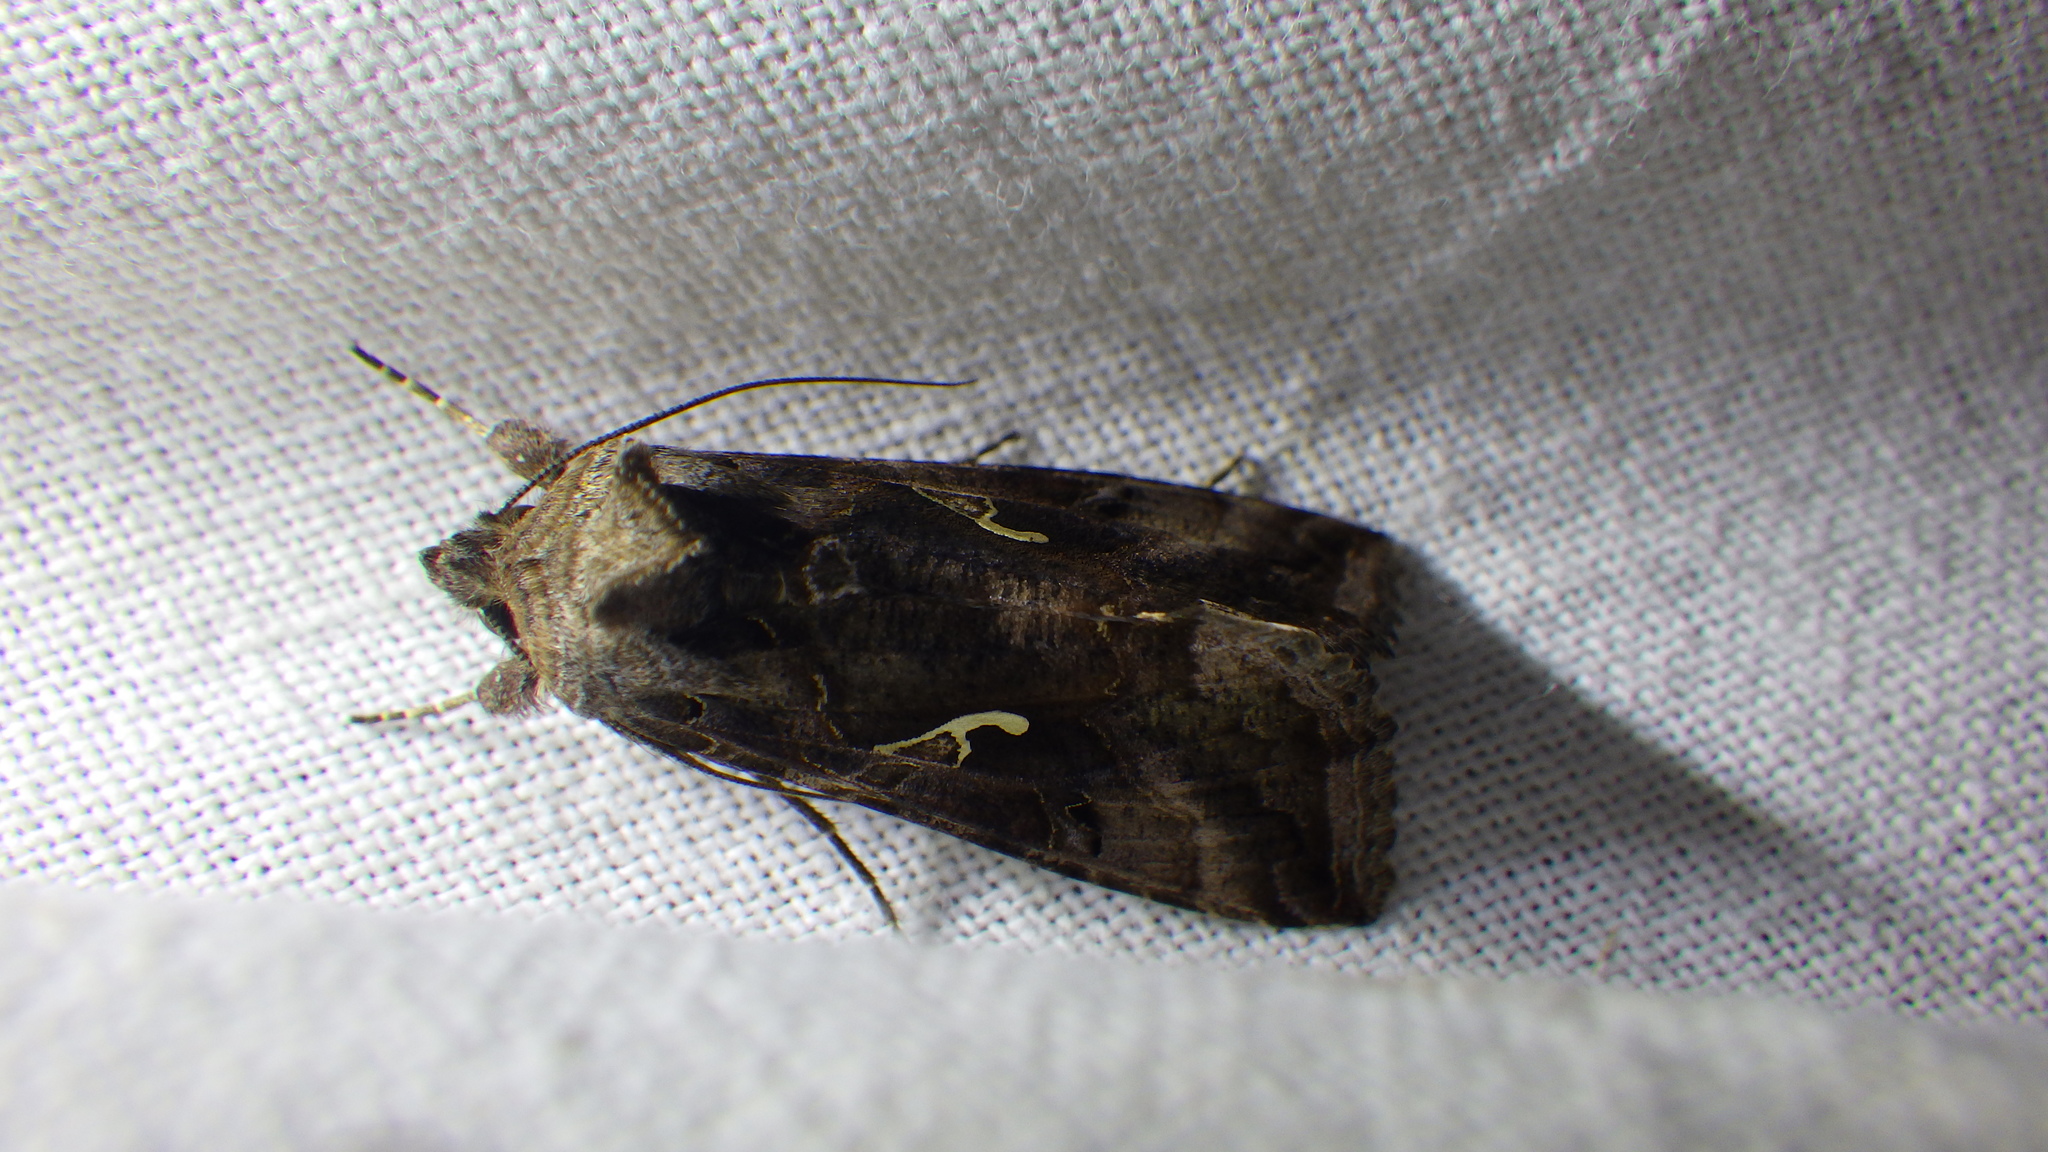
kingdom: Animalia
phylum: Arthropoda
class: Insecta
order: Lepidoptera
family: Noctuidae
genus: Autographa
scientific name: Autographa gamma
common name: Silver y
